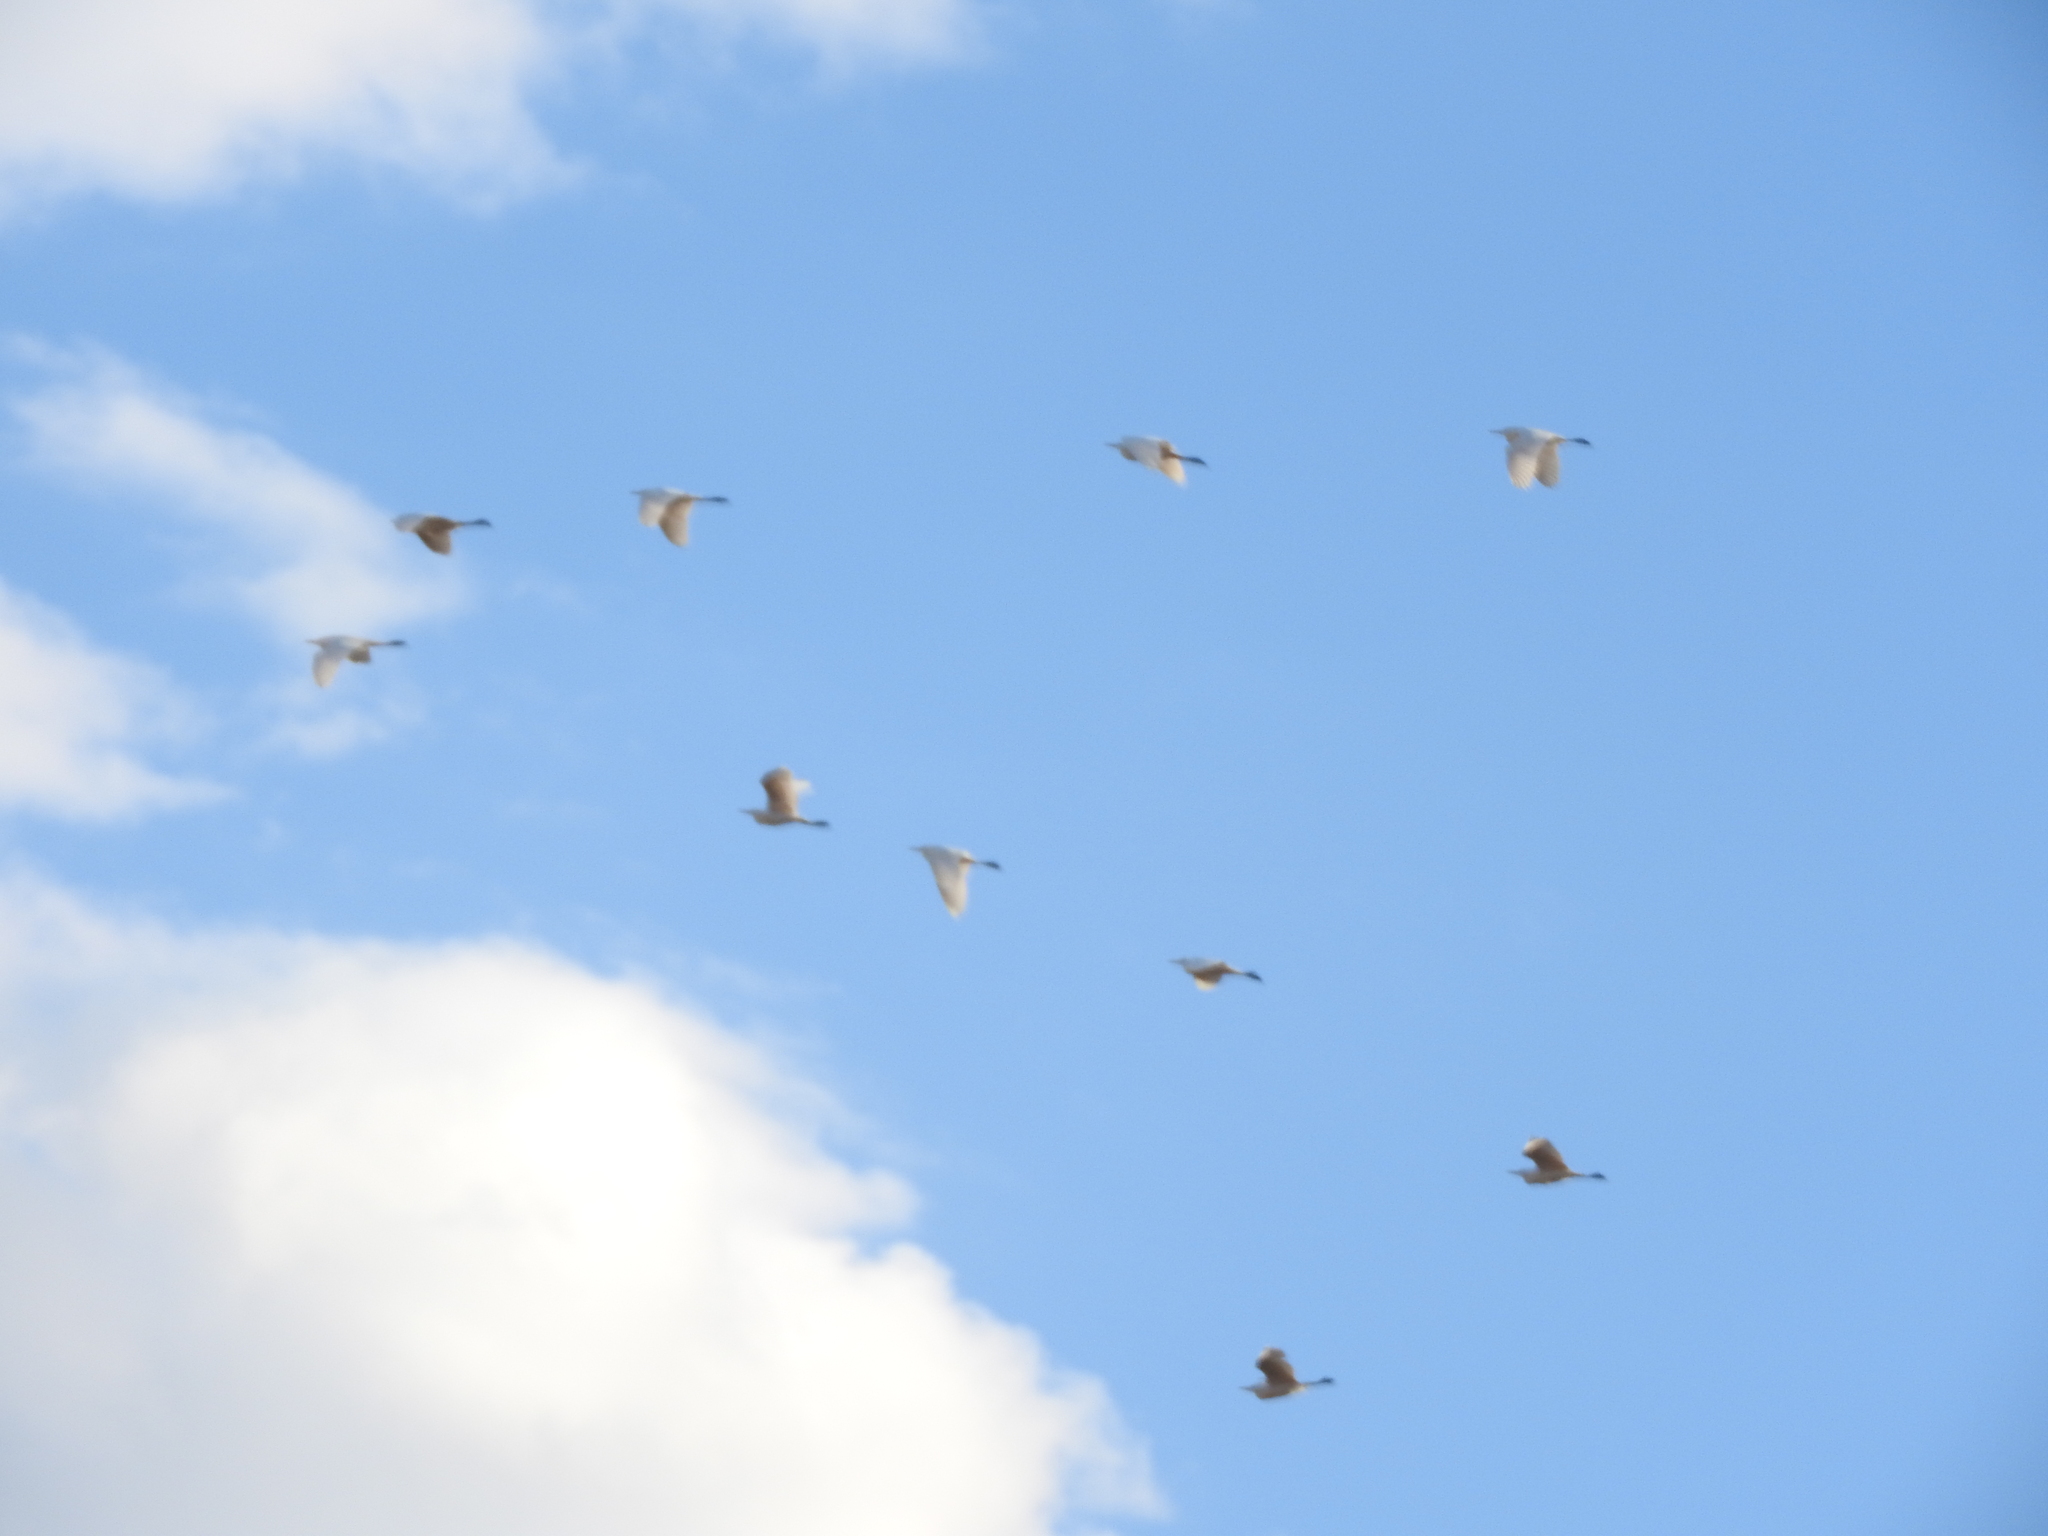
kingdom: Animalia
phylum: Chordata
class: Aves
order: Pelecaniformes
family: Ardeidae
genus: Bubulcus
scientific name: Bubulcus ibis
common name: Cattle egret
